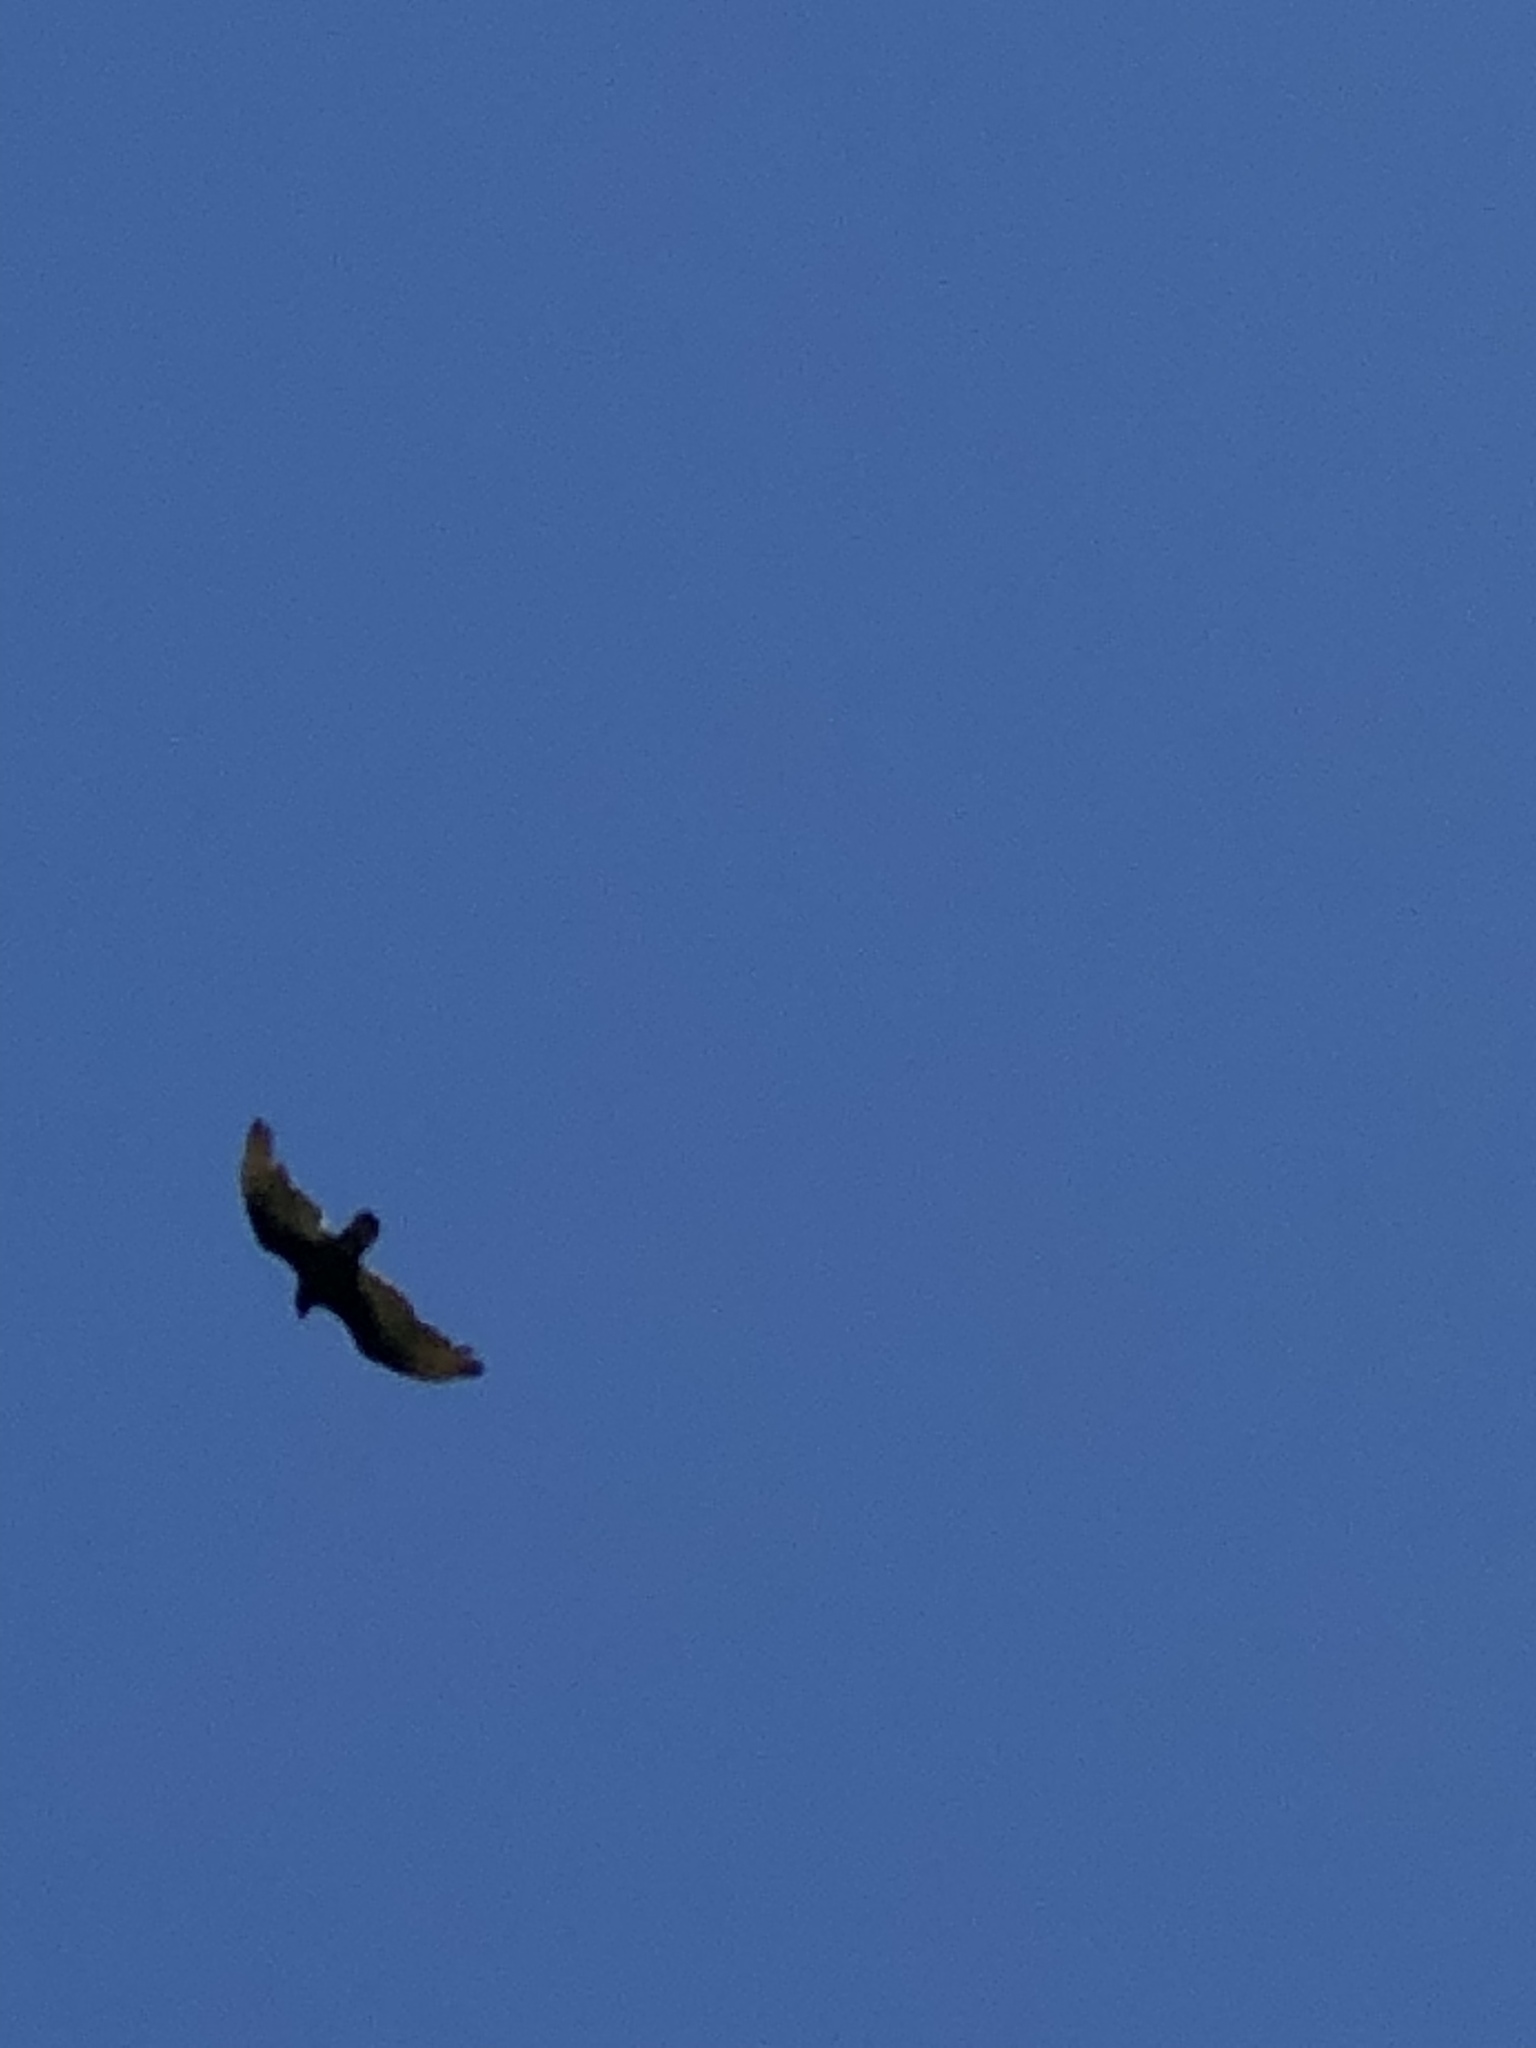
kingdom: Animalia
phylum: Chordata
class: Aves
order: Accipitriformes
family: Cathartidae
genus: Cathartes
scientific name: Cathartes aura
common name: Turkey vulture
